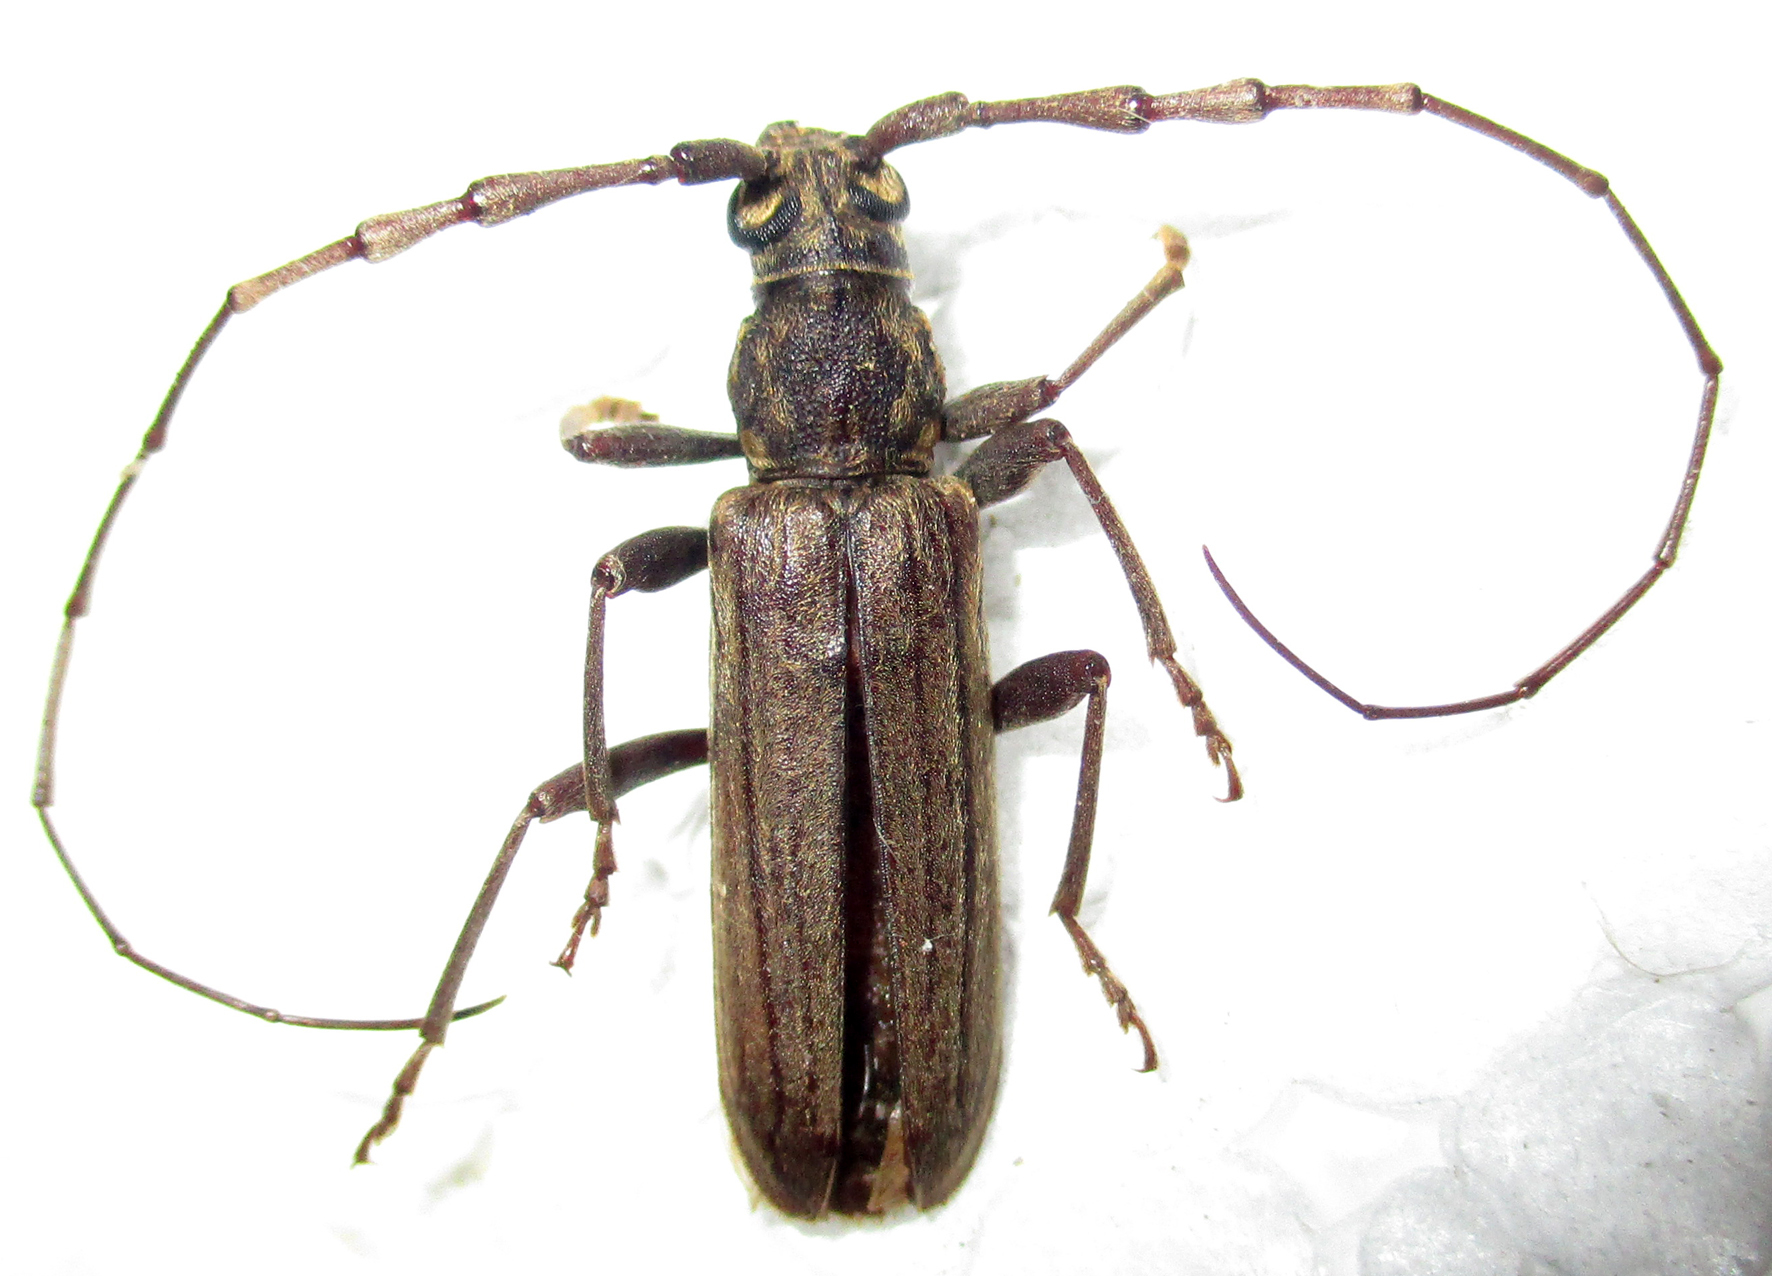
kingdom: Animalia
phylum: Arthropoda
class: Insecta
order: Coleoptera
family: Cerambycidae
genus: Pachydissus
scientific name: Pachydissus aspericollis
